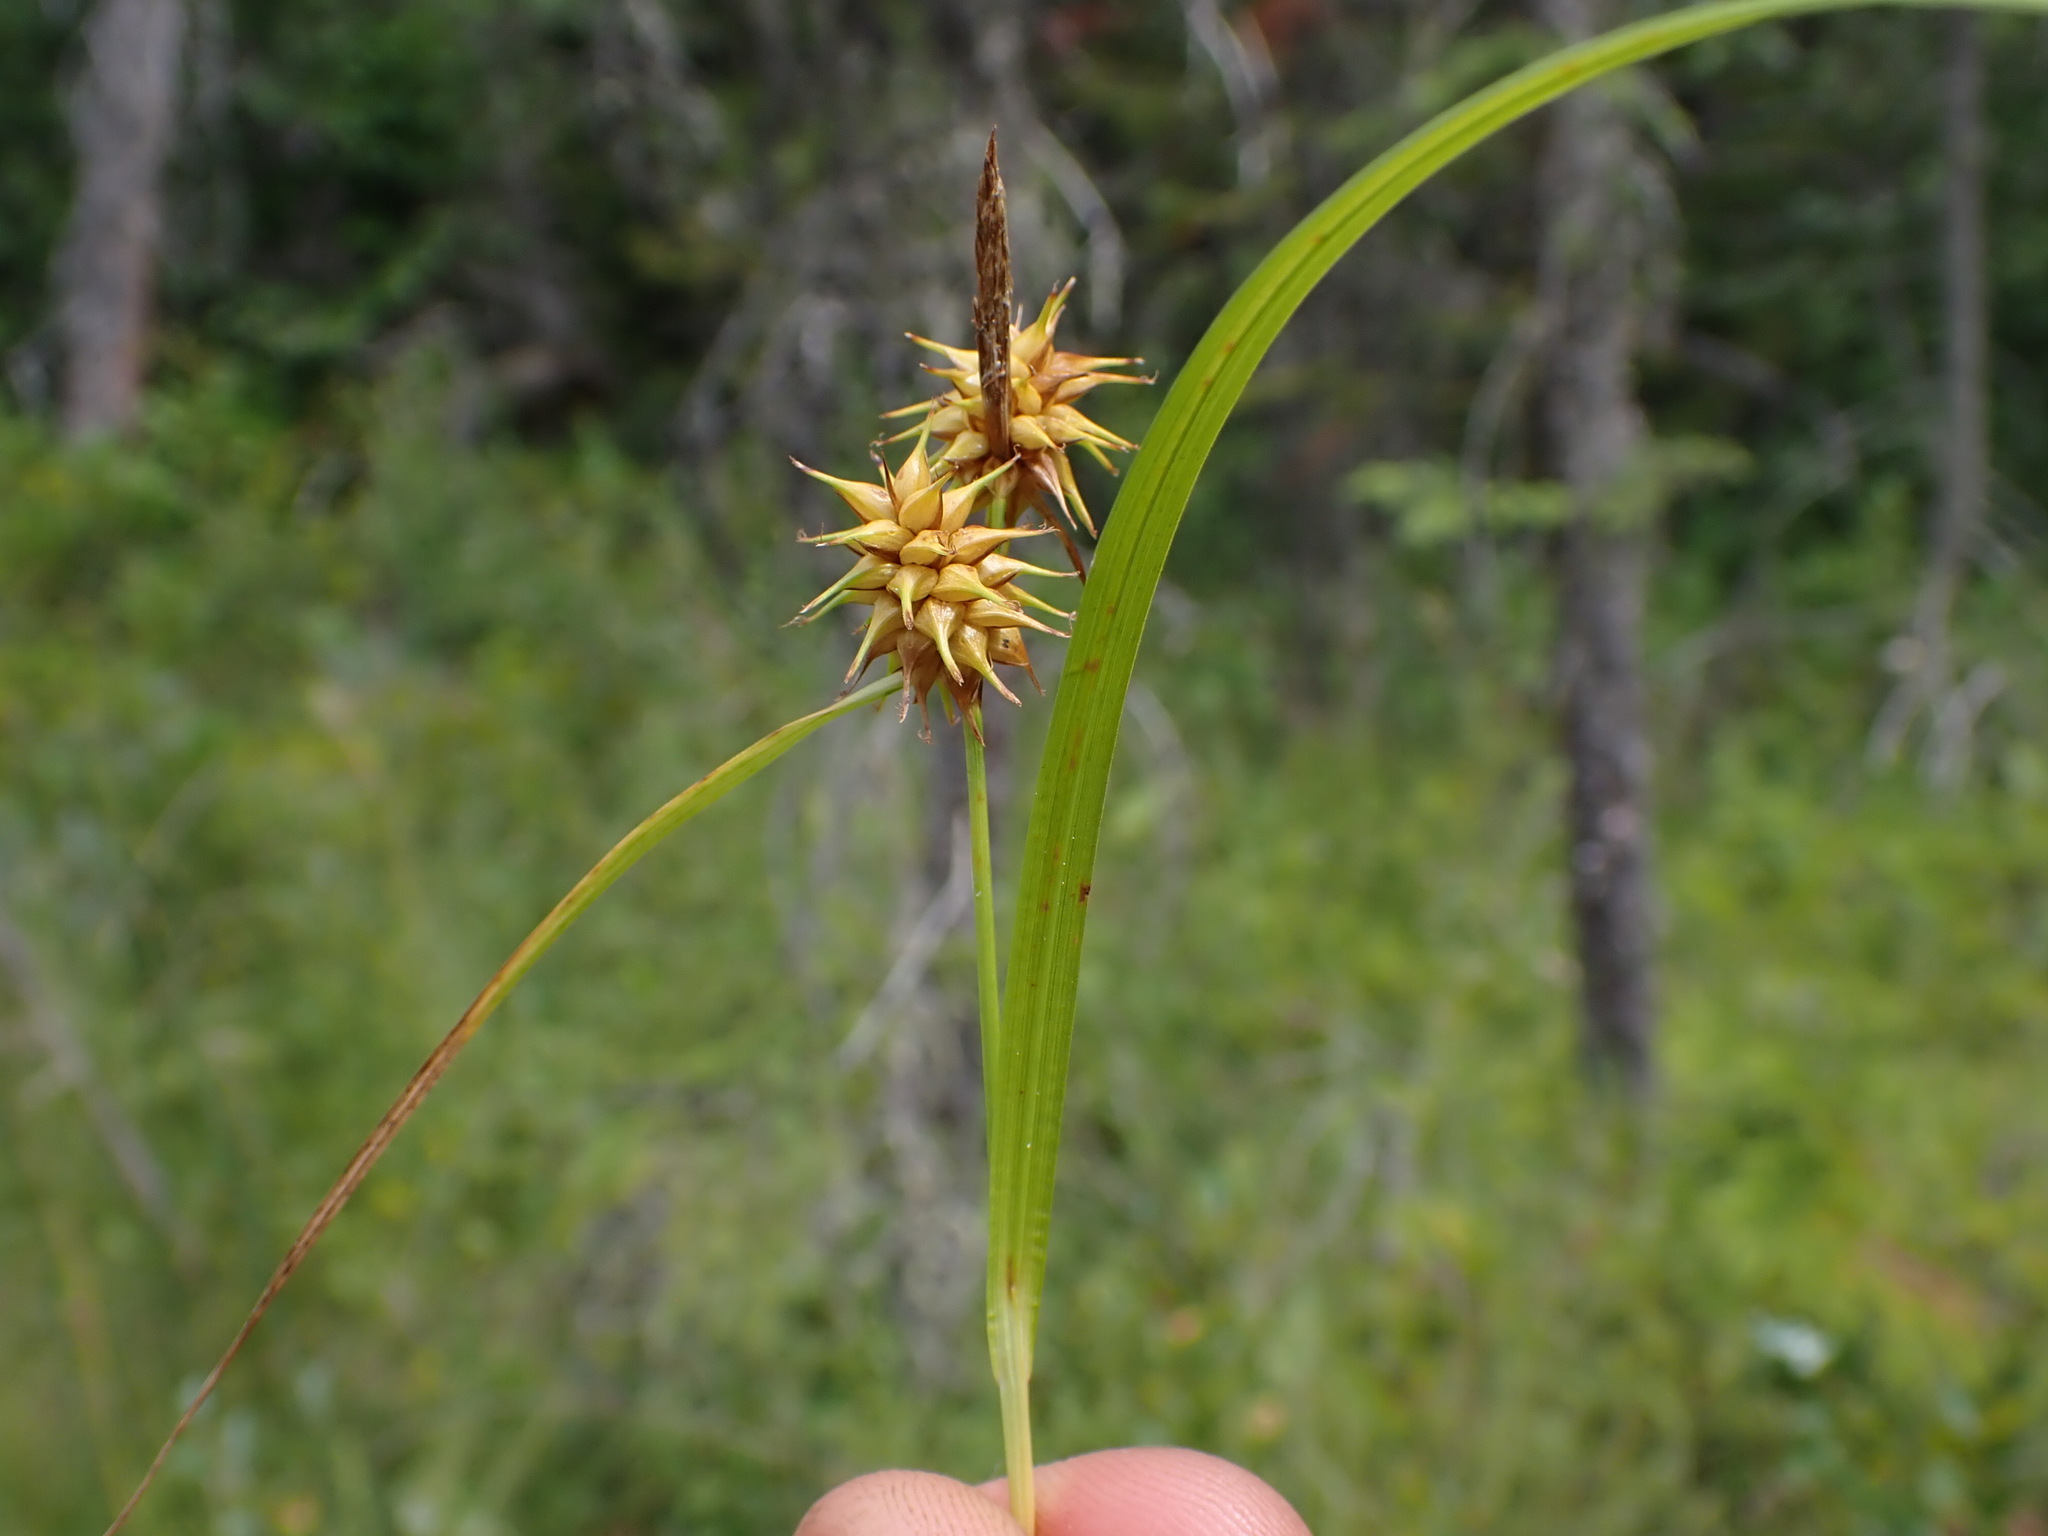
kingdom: Plantae
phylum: Tracheophyta
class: Liliopsida
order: Poales
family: Cyperaceae
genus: Carex
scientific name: Carex flava
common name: Large yellow-sedge
